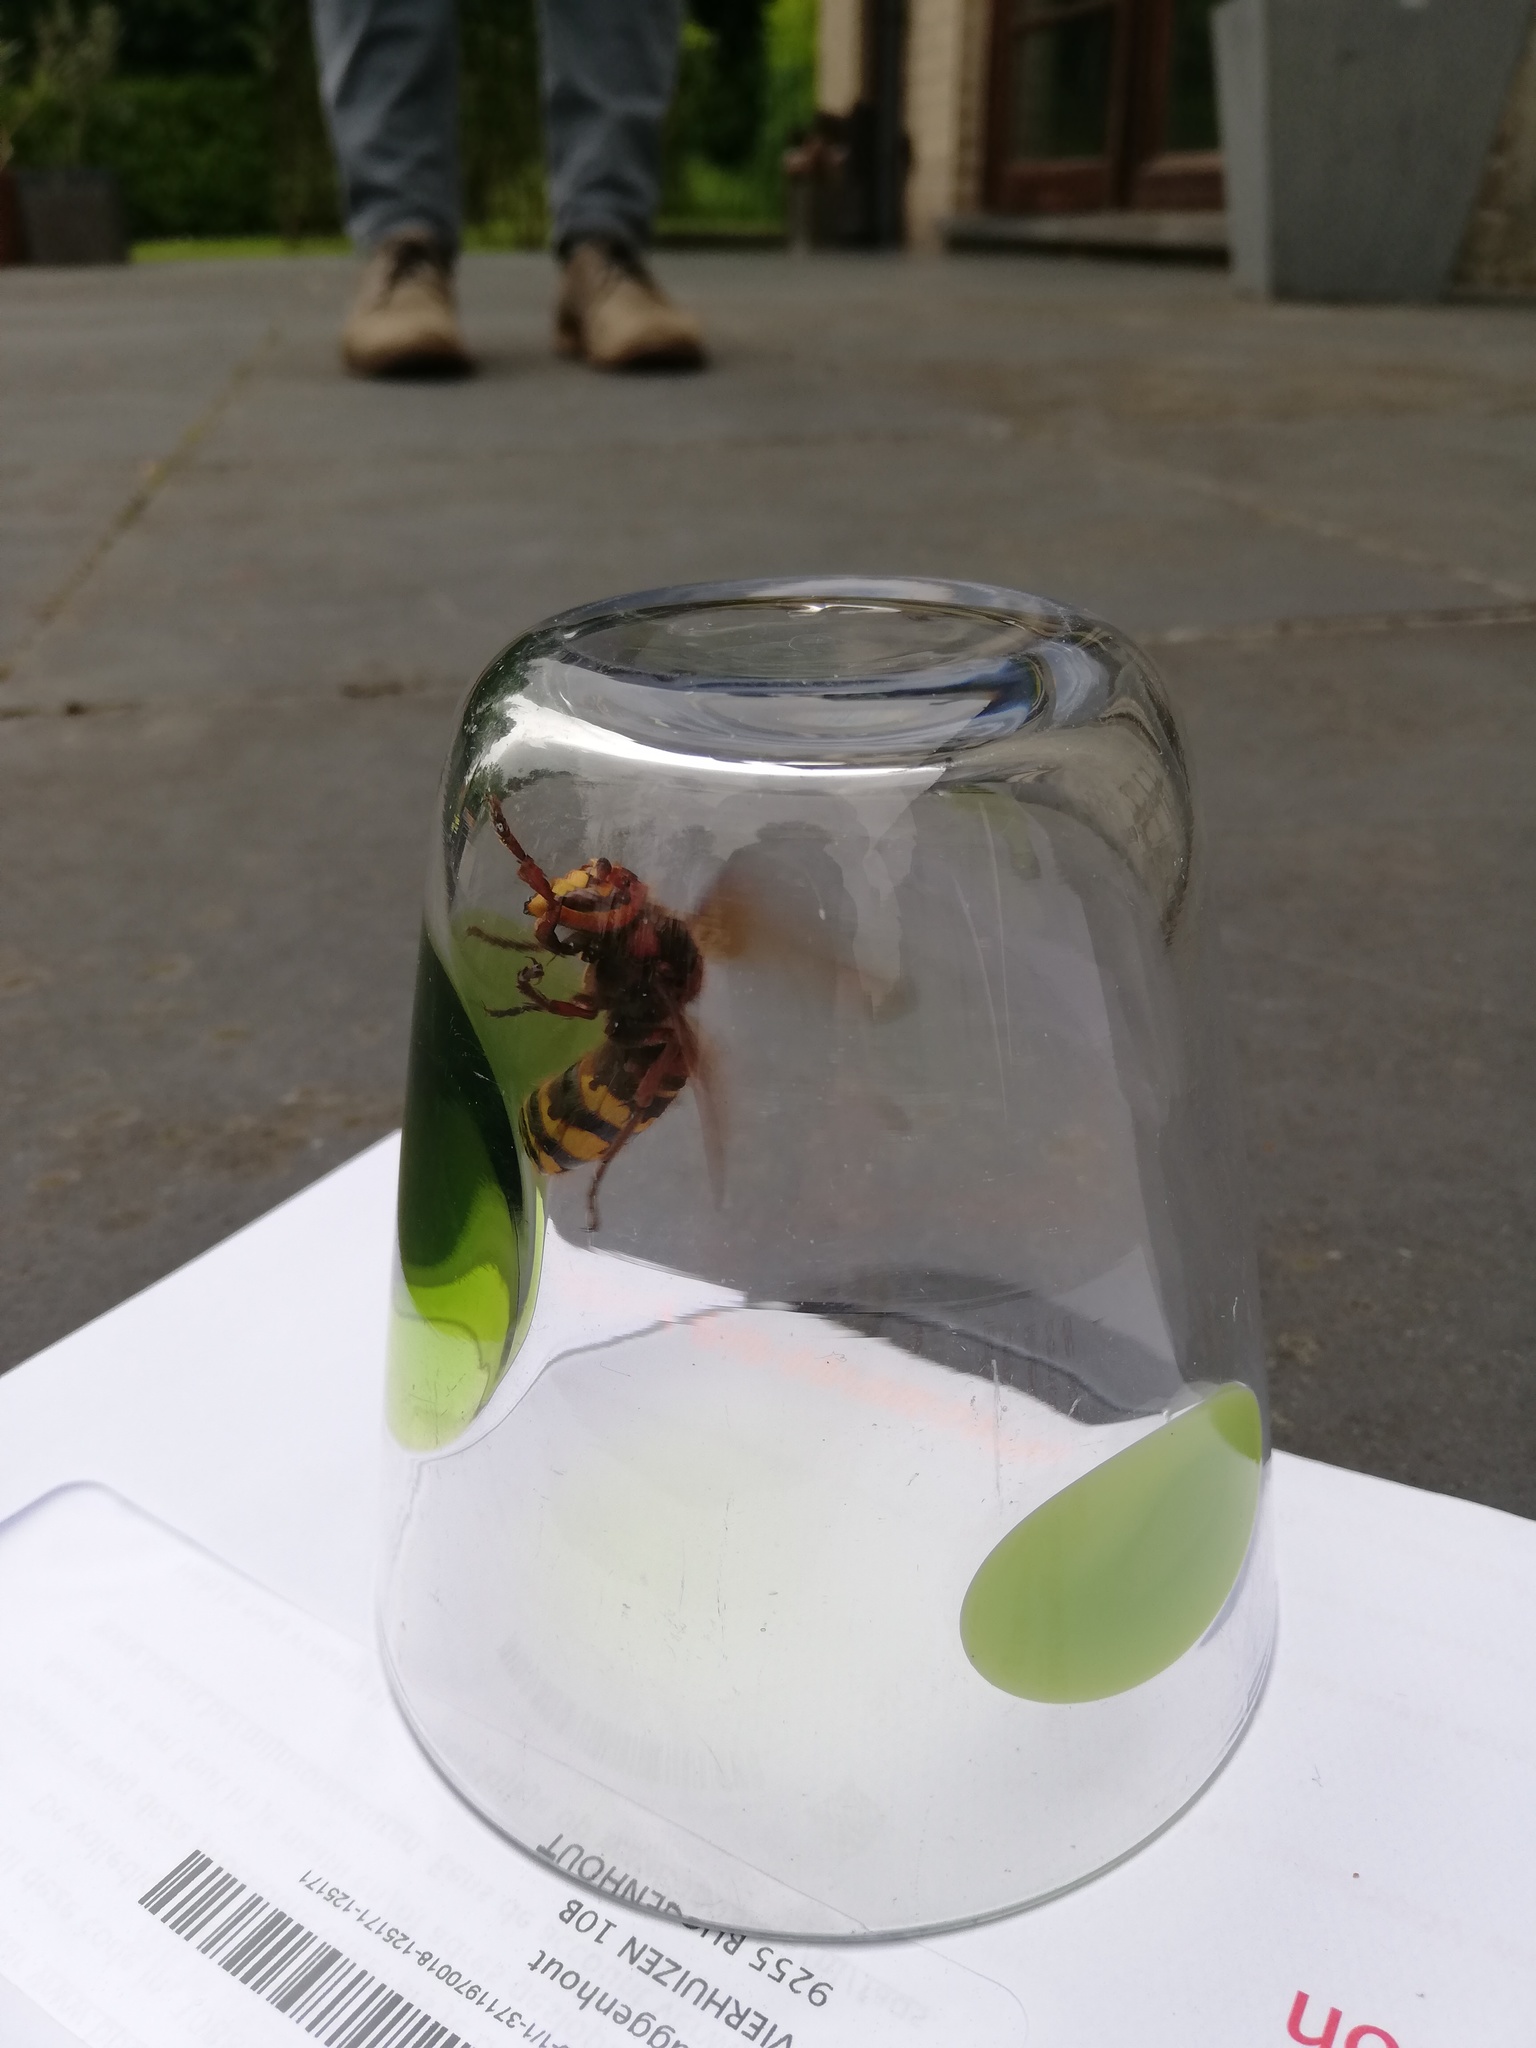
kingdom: Animalia
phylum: Arthropoda
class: Insecta
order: Hymenoptera
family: Vespidae
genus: Vespa
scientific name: Vespa crabro
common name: Hornet
